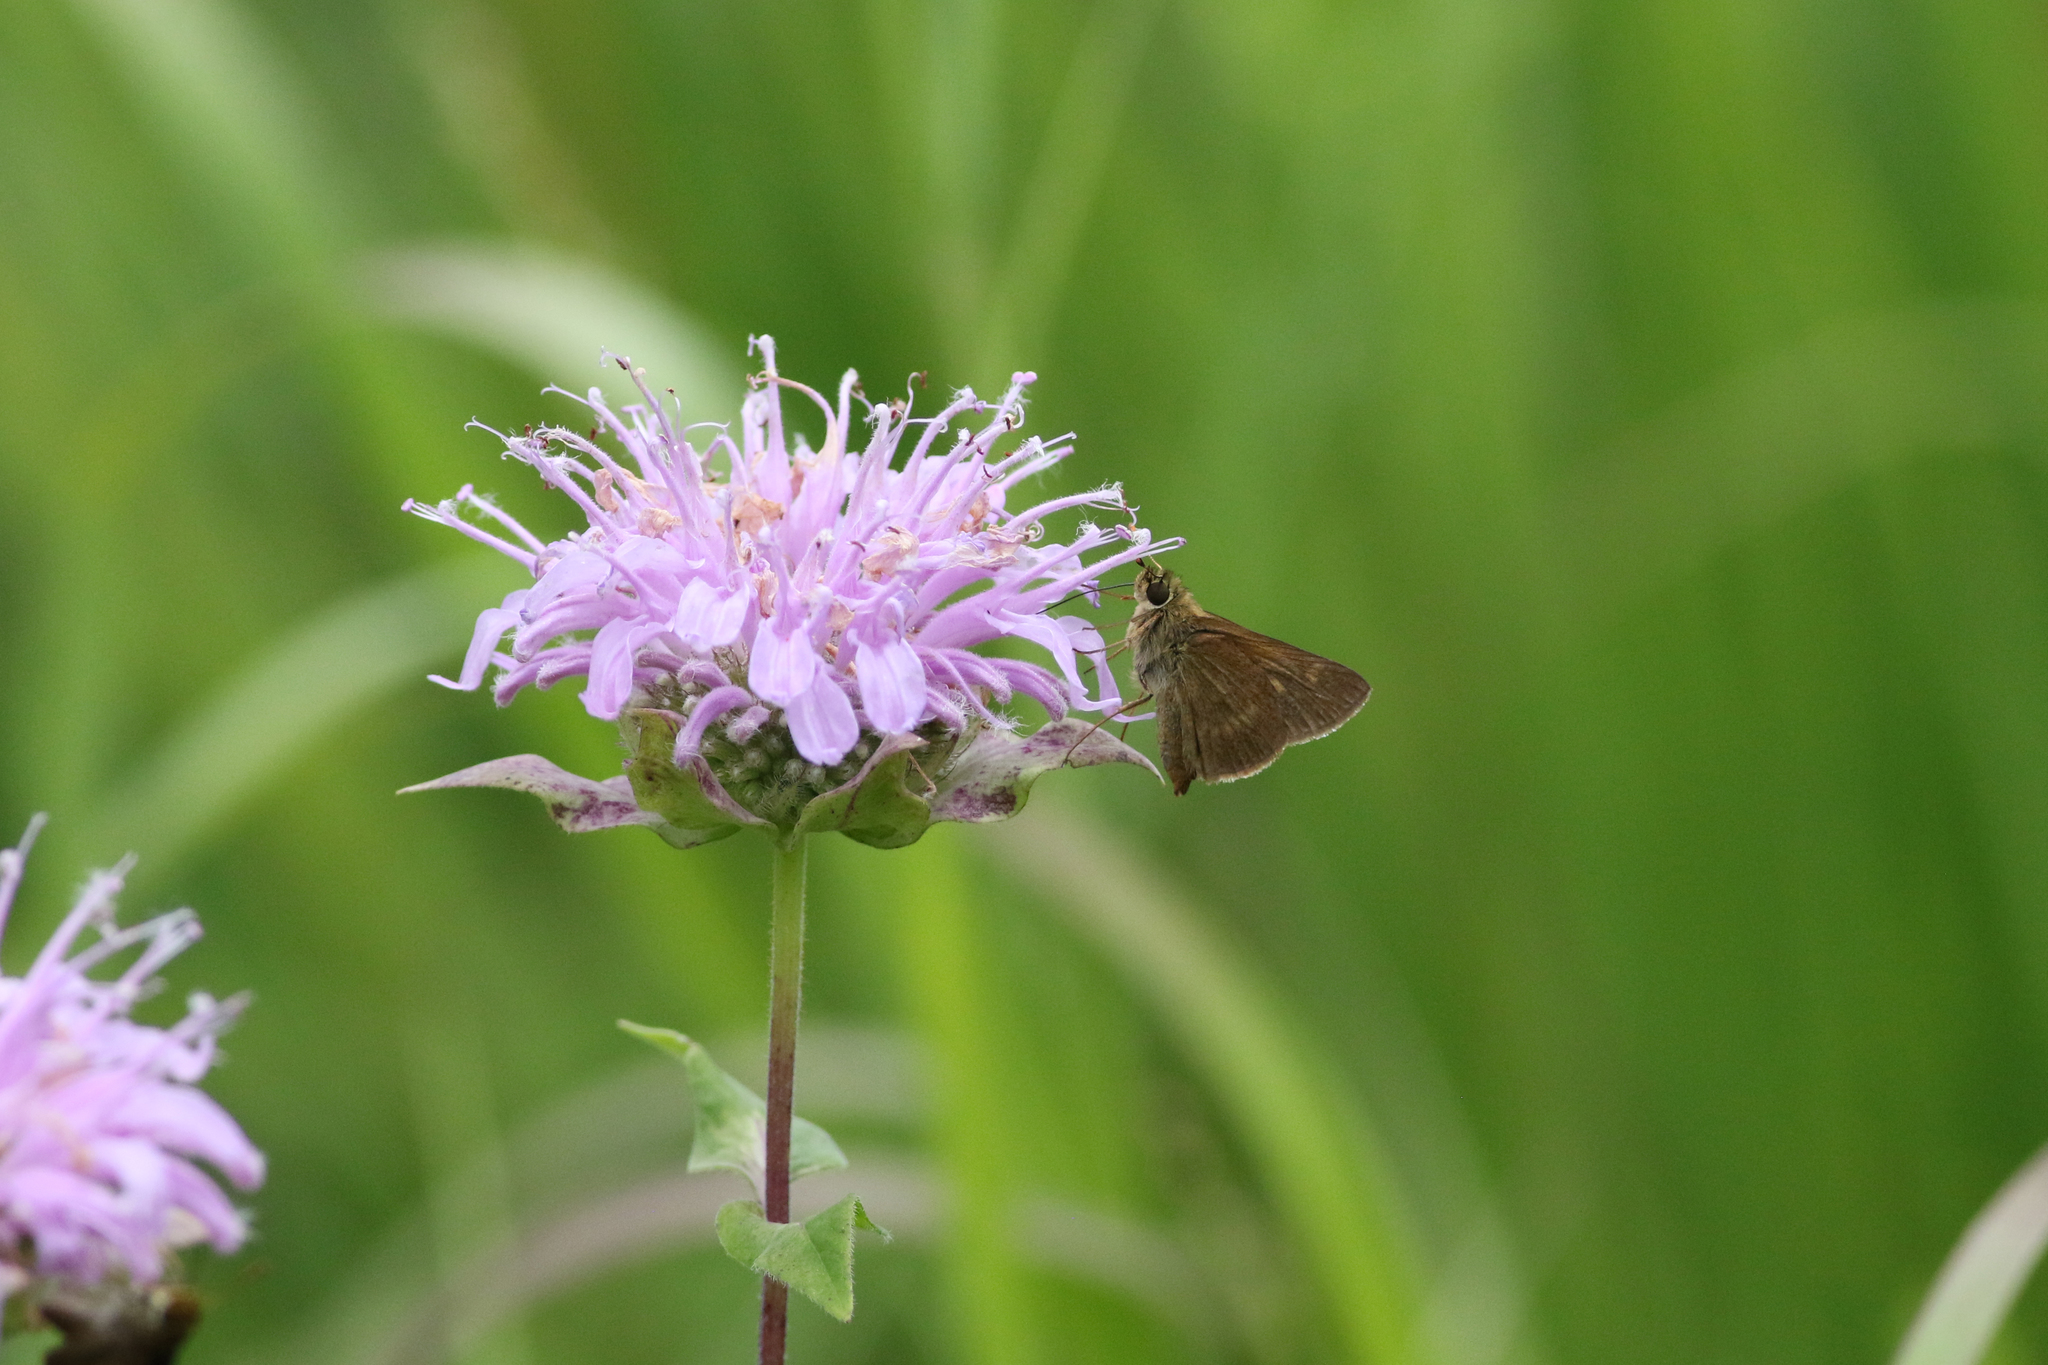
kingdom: Animalia
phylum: Arthropoda
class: Insecta
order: Lepidoptera
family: Hesperiidae
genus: Euphyes
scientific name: Euphyes vestris
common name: Dun skipper
